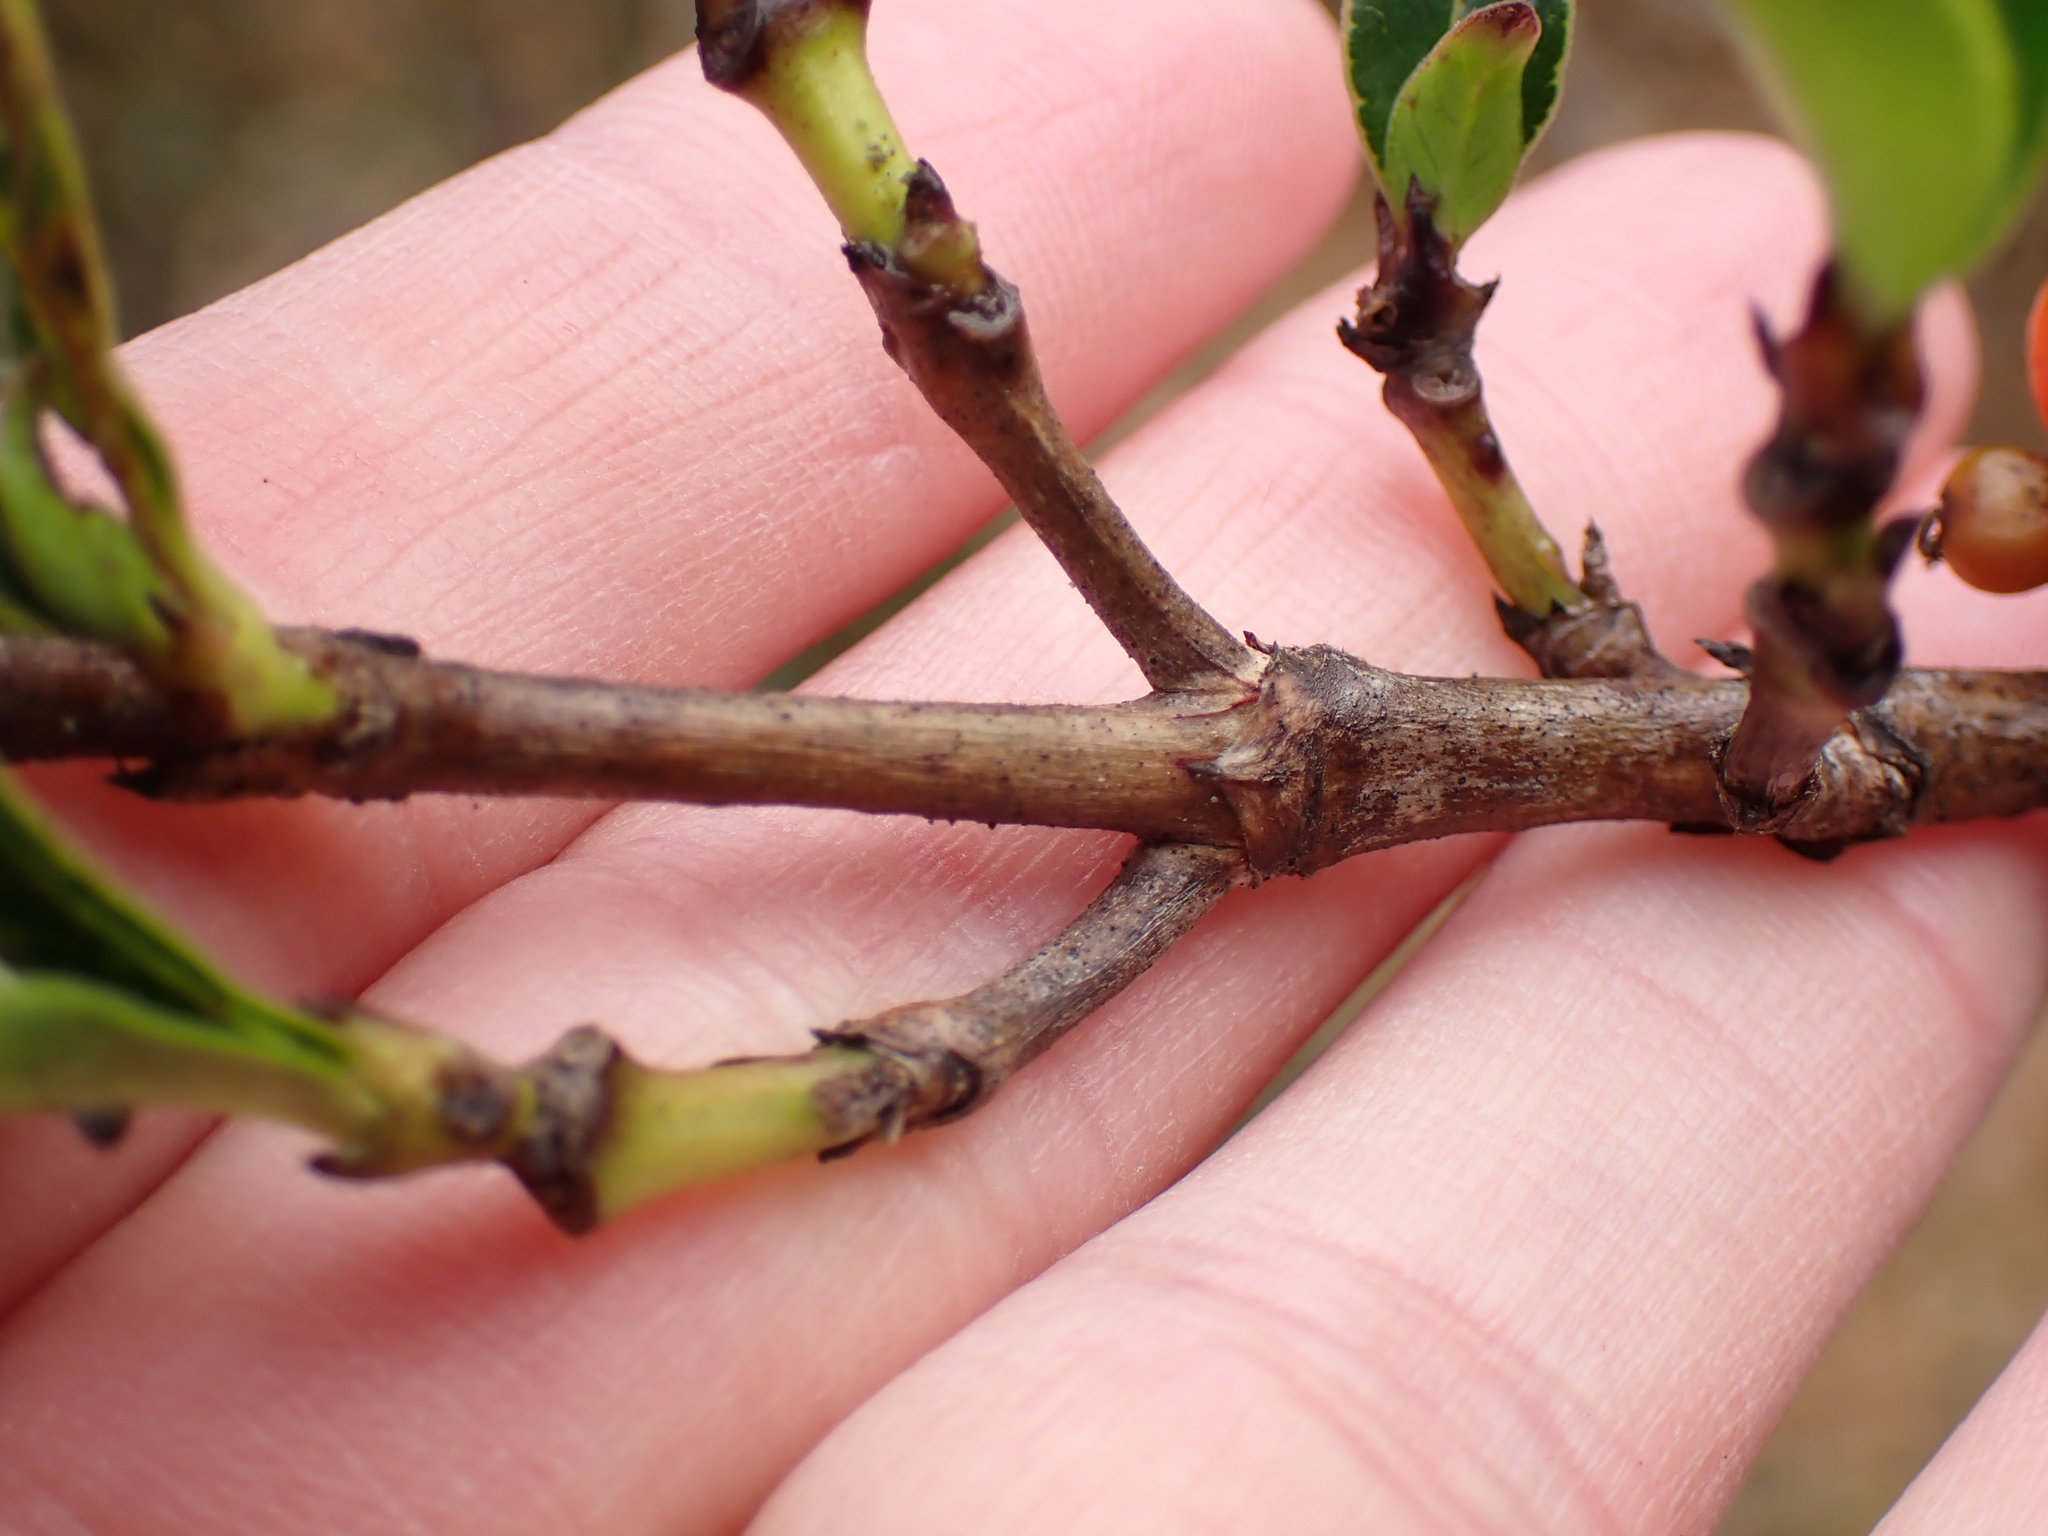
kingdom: Plantae
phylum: Tracheophyta
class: Magnoliopsida
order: Gentianales
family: Rubiaceae
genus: Coprosma
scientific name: Coprosma robusta
